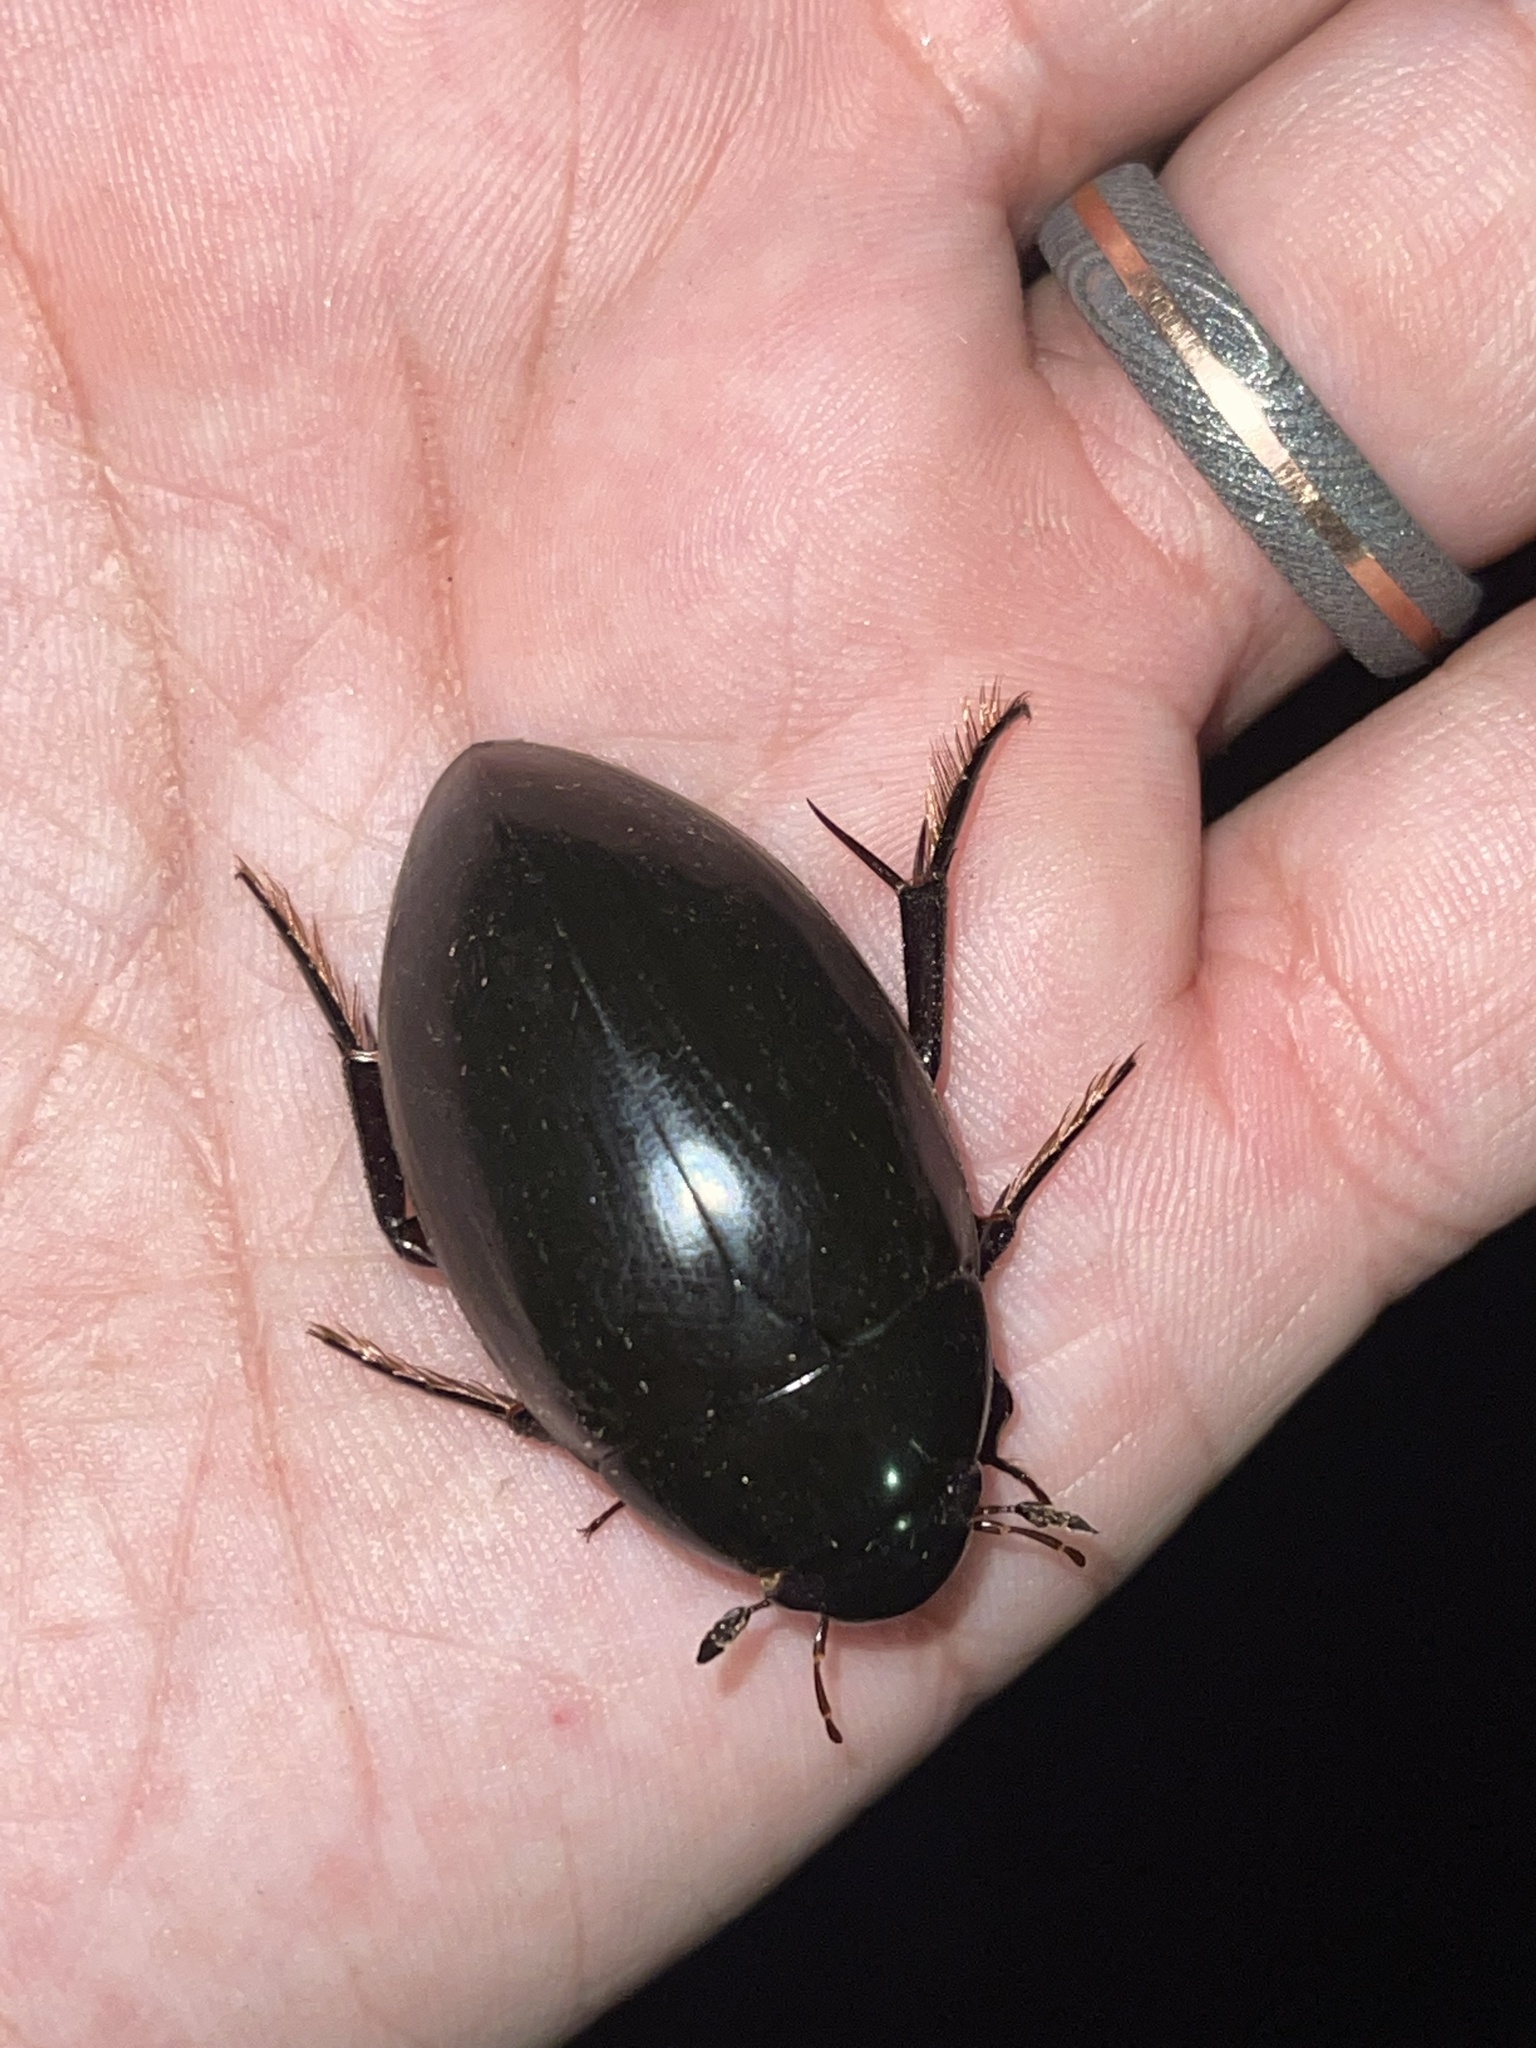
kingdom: Animalia
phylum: Arthropoda
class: Insecta
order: Coleoptera
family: Hydrophilidae
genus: Hydrophilus
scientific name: Hydrophilus ovatus
